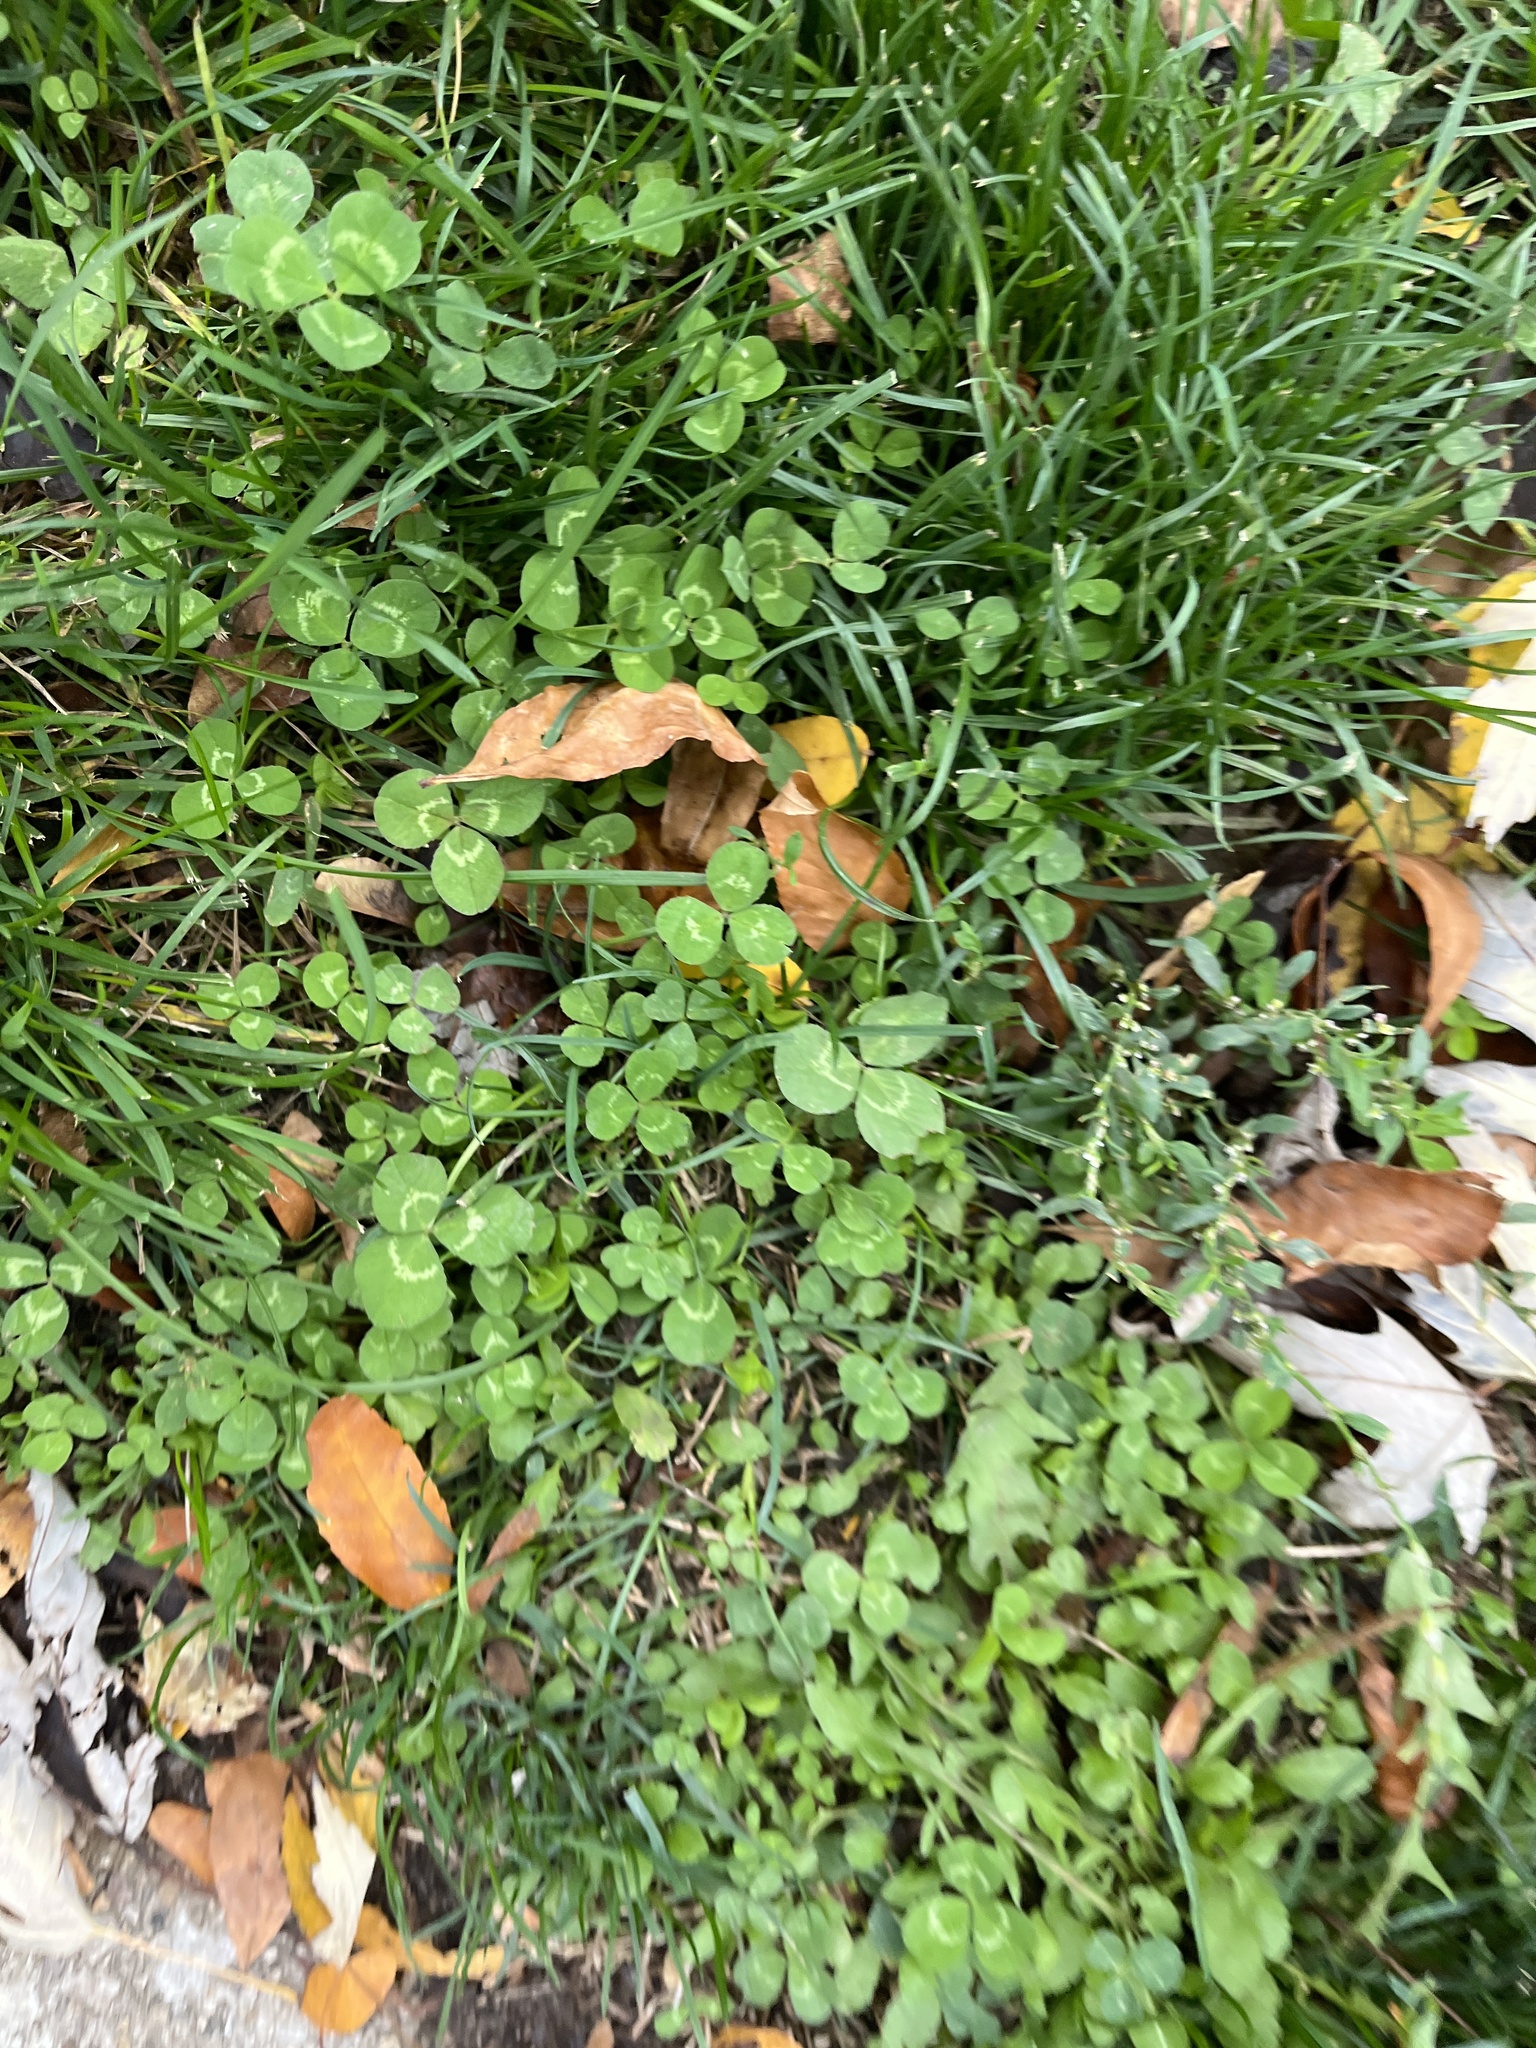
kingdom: Plantae
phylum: Tracheophyta
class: Magnoliopsida
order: Fabales
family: Fabaceae
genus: Trifolium
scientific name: Trifolium repens
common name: White clover
